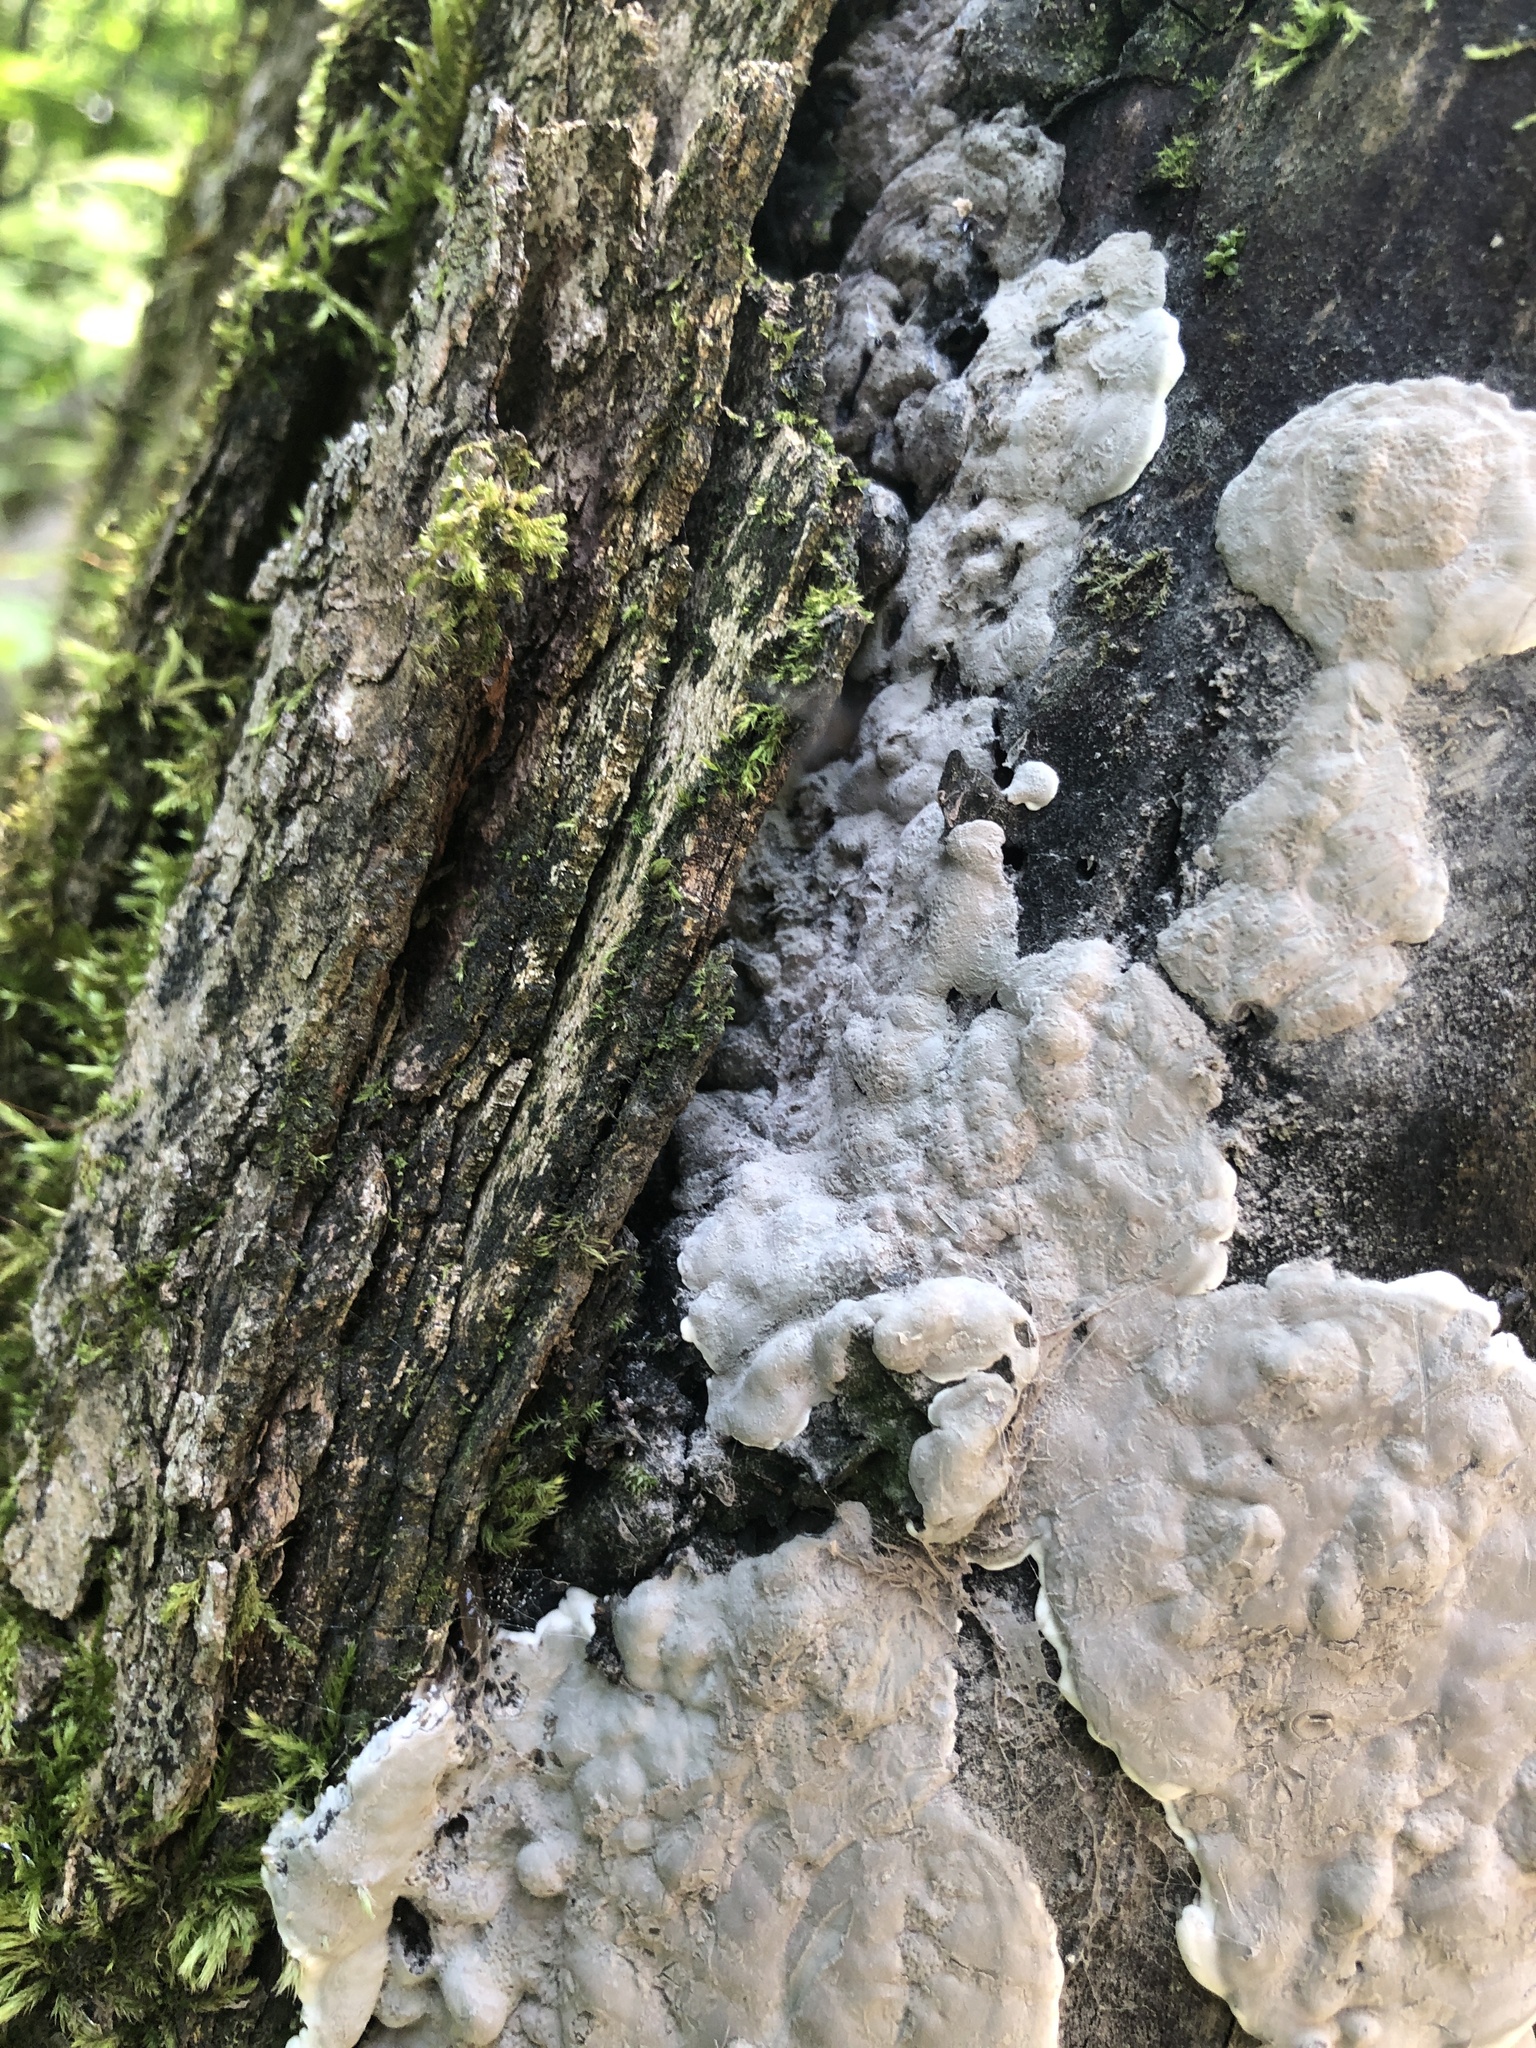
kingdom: Fungi
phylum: Ascomycota
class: Sordariomycetes
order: Xylariales
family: Xylariaceae
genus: Kretzschmaria
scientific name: Kretzschmaria deusta
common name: Brittle cinder
